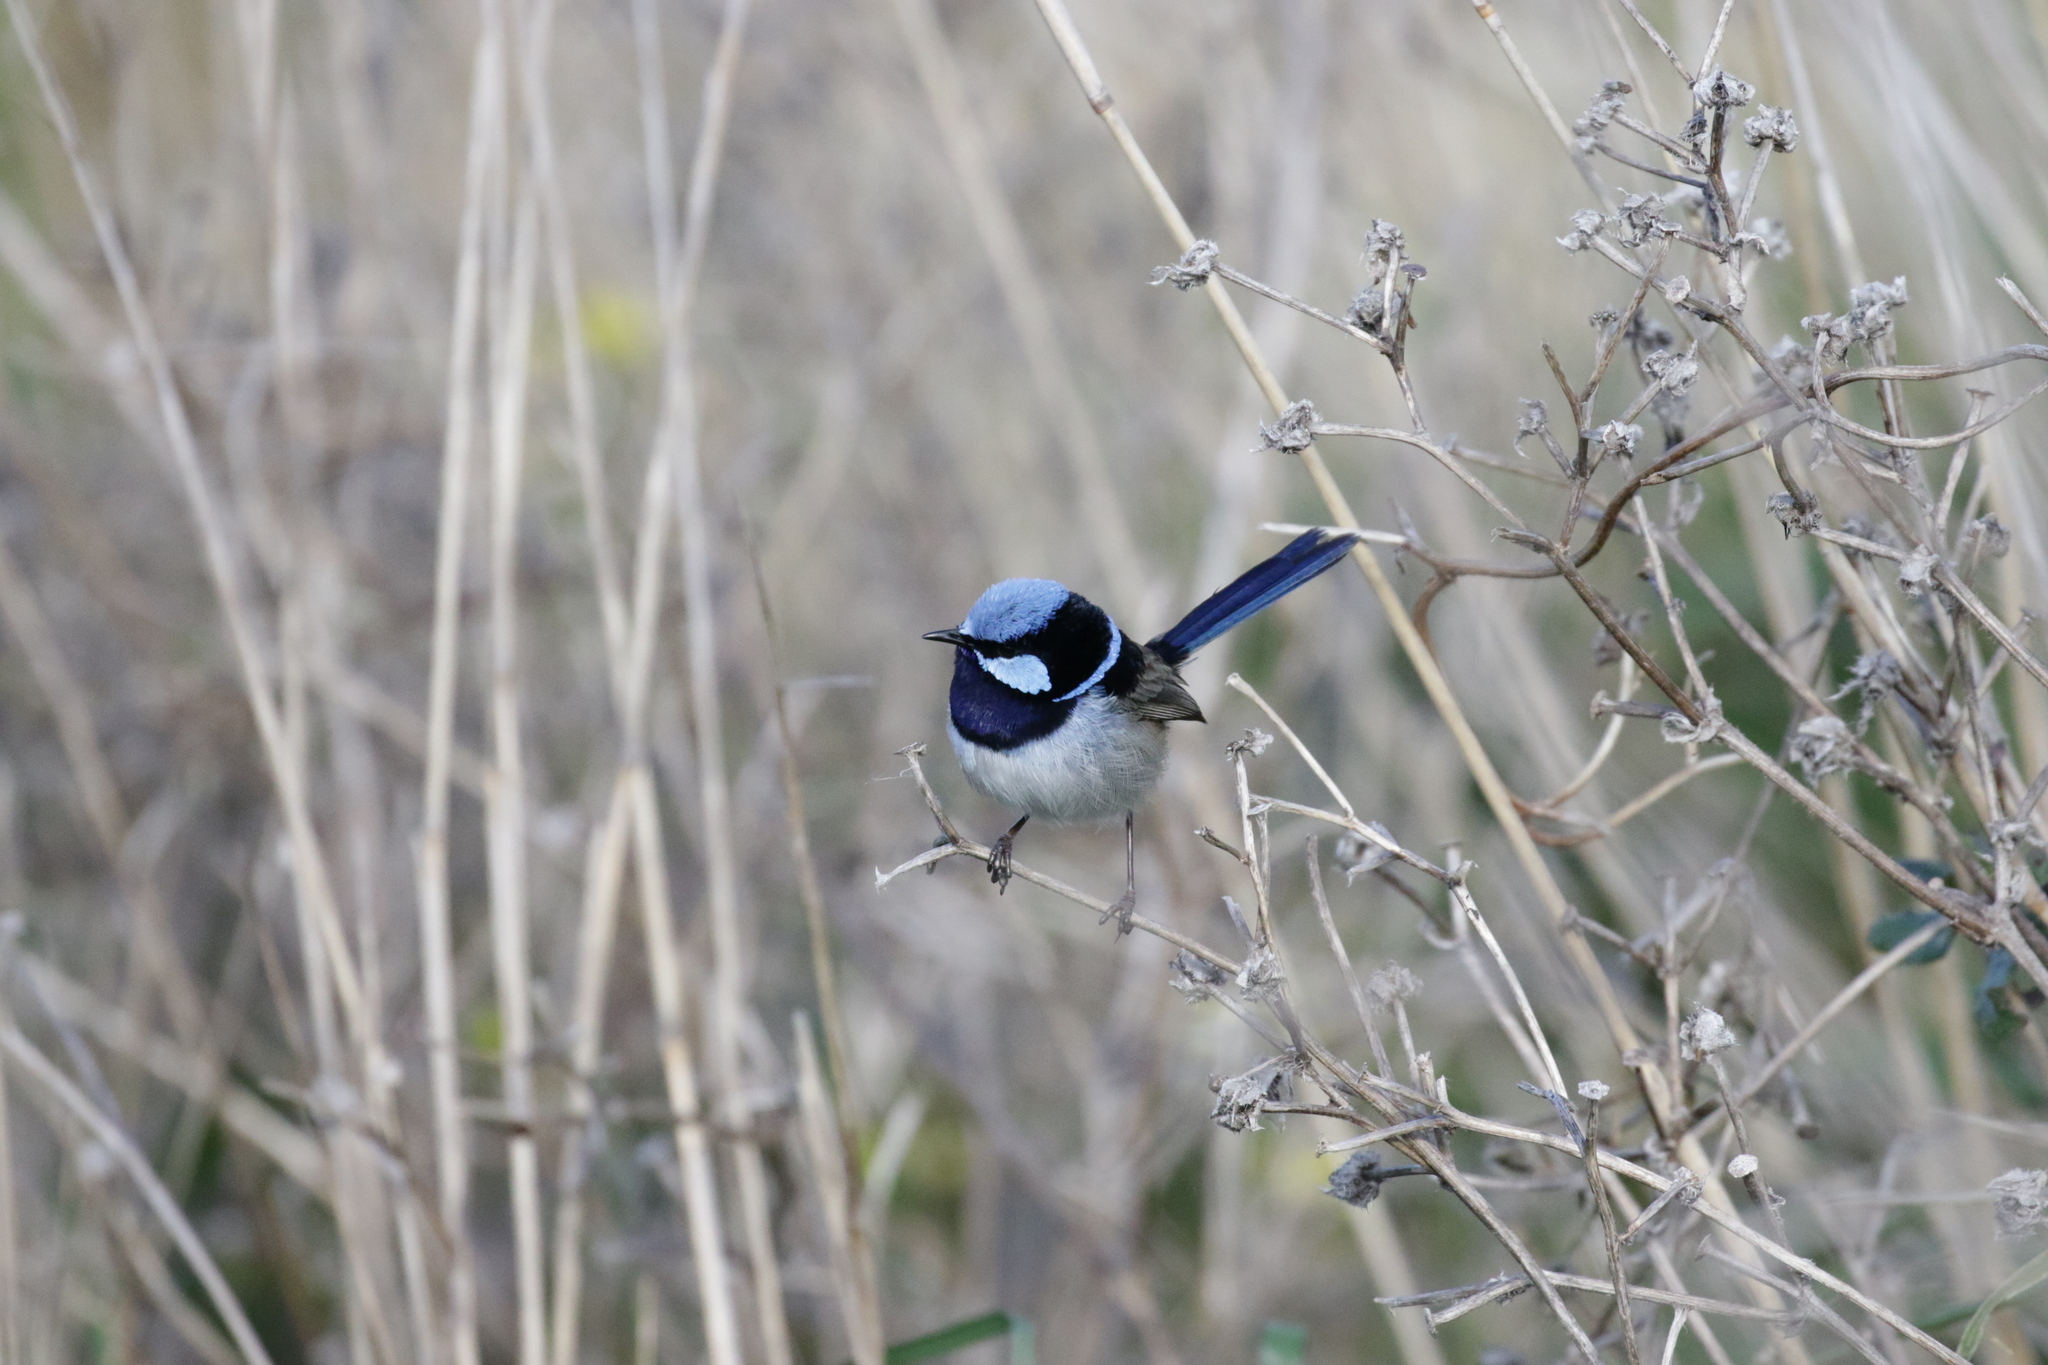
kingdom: Animalia
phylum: Chordata
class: Aves
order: Passeriformes
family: Maluridae
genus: Malurus
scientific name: Malurus cyaneus
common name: Superb fairywren
